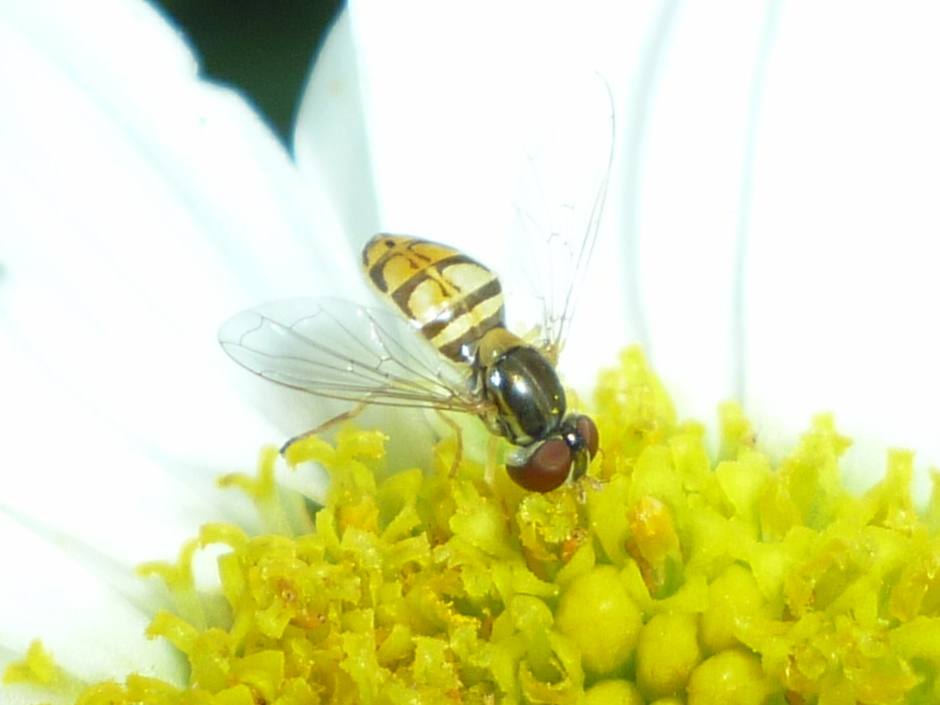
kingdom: Animalia
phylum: Arthropoda
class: Insecta
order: Diptera
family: Syrphidae
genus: Toxomerus
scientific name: Toxomerus marginatus
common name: Syrphid fly
